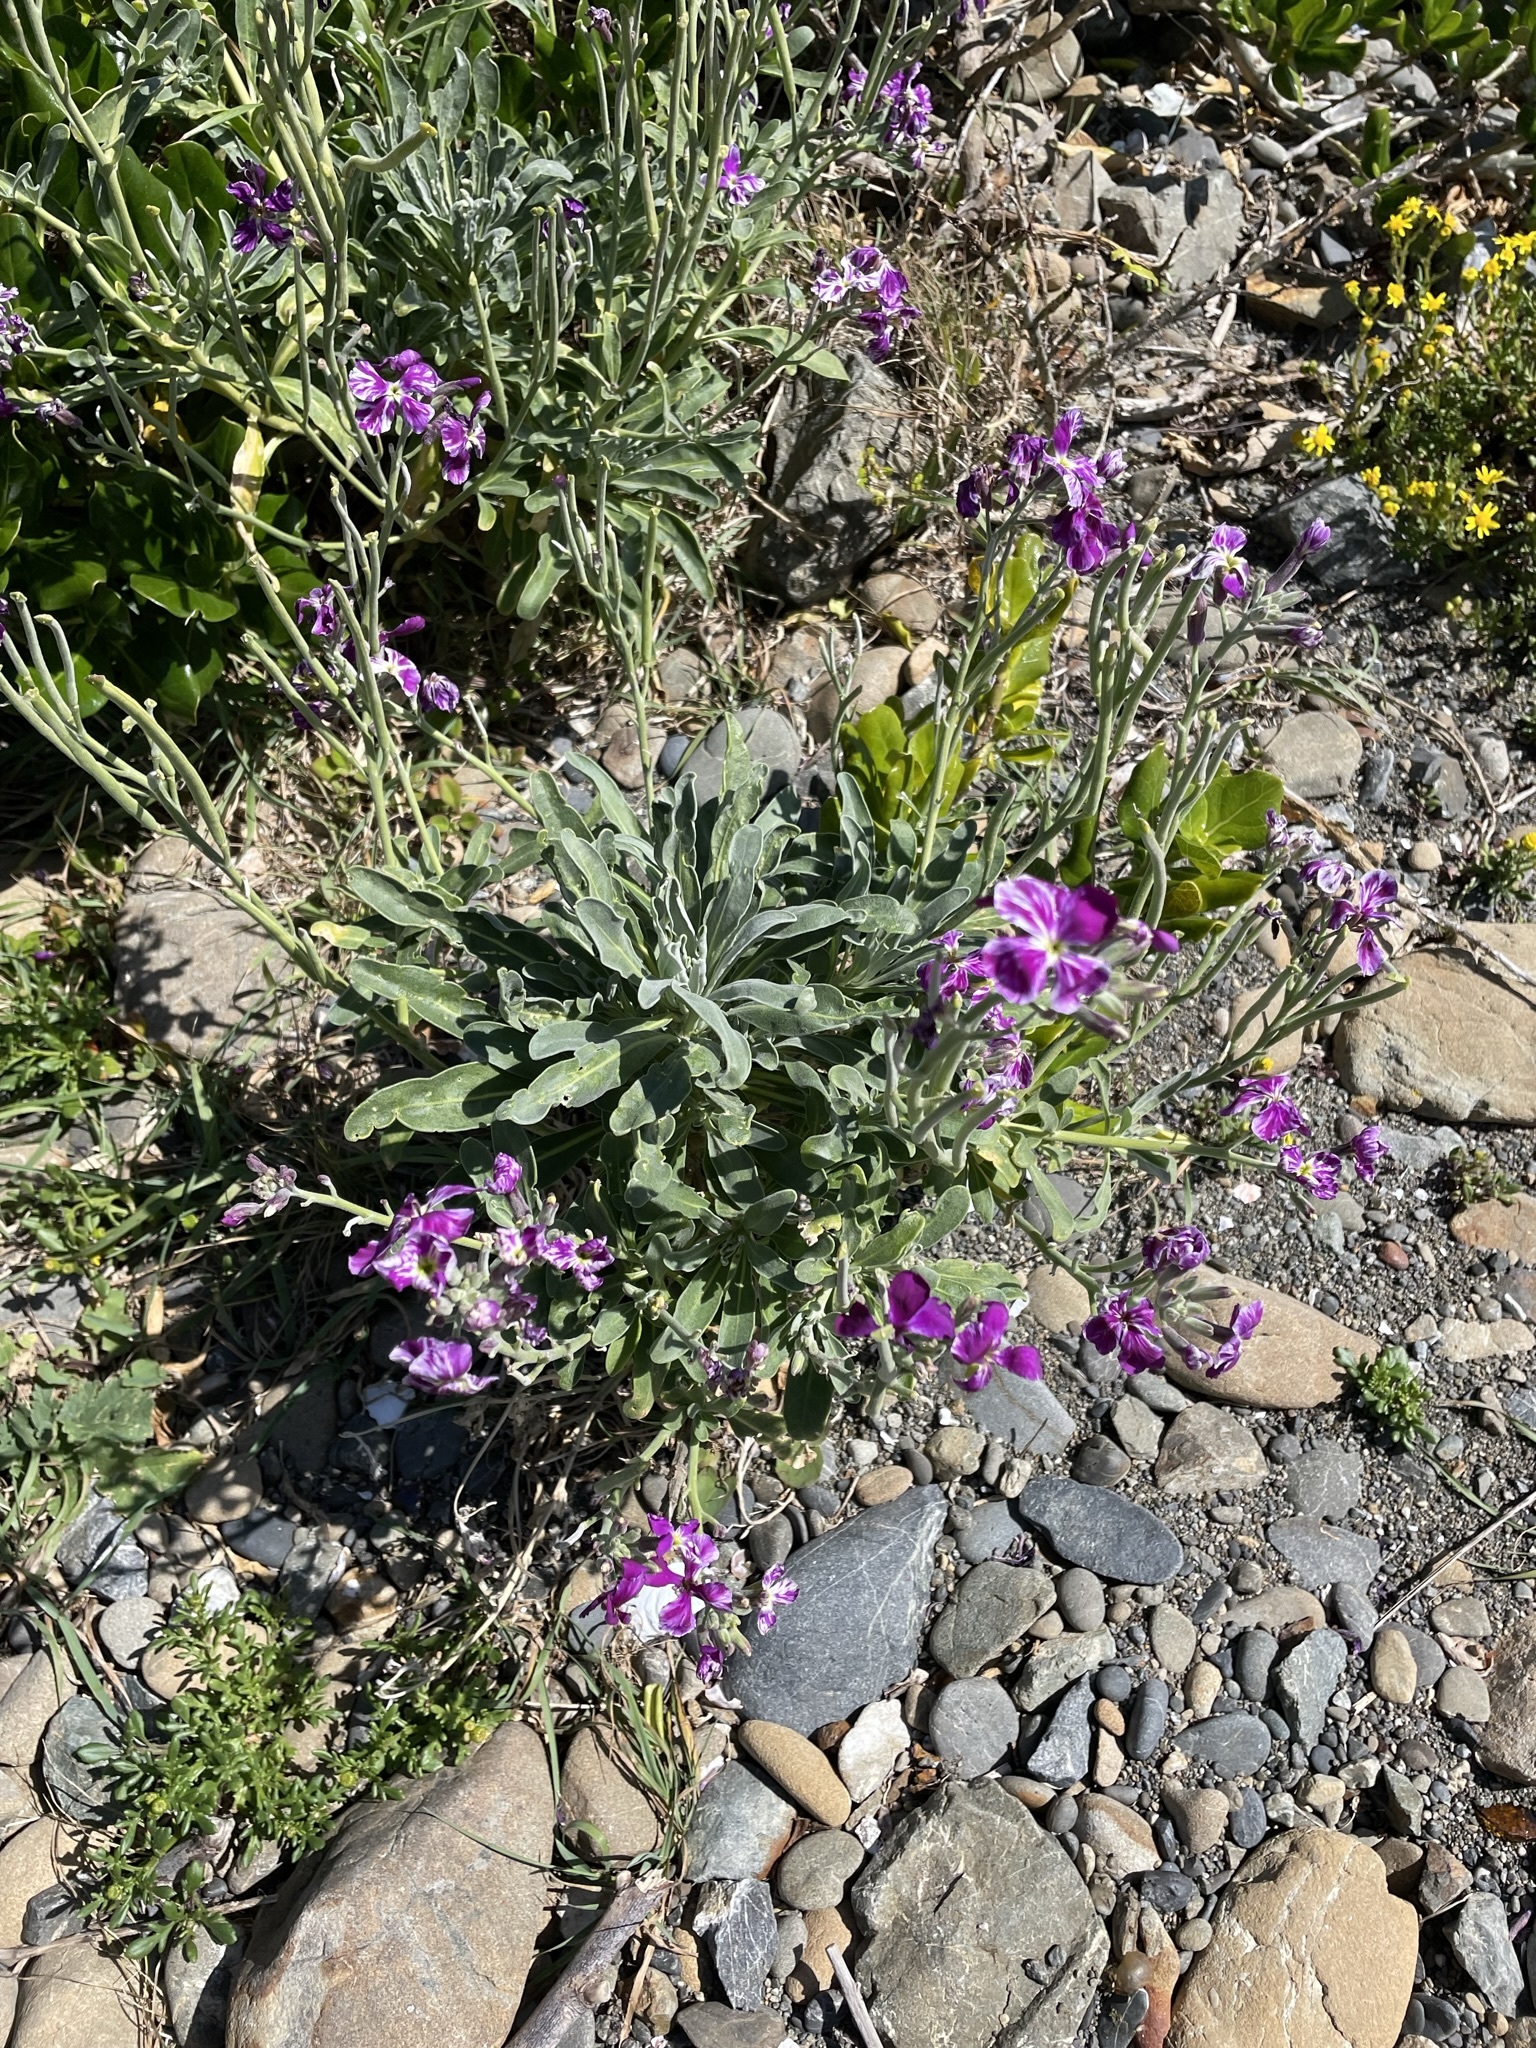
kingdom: Plantae
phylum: Tracheophyta
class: Magnoliopsida
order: Brassicales
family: Brassicaceae
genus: Matthiola
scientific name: Matthiola incana
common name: Hoary stock
